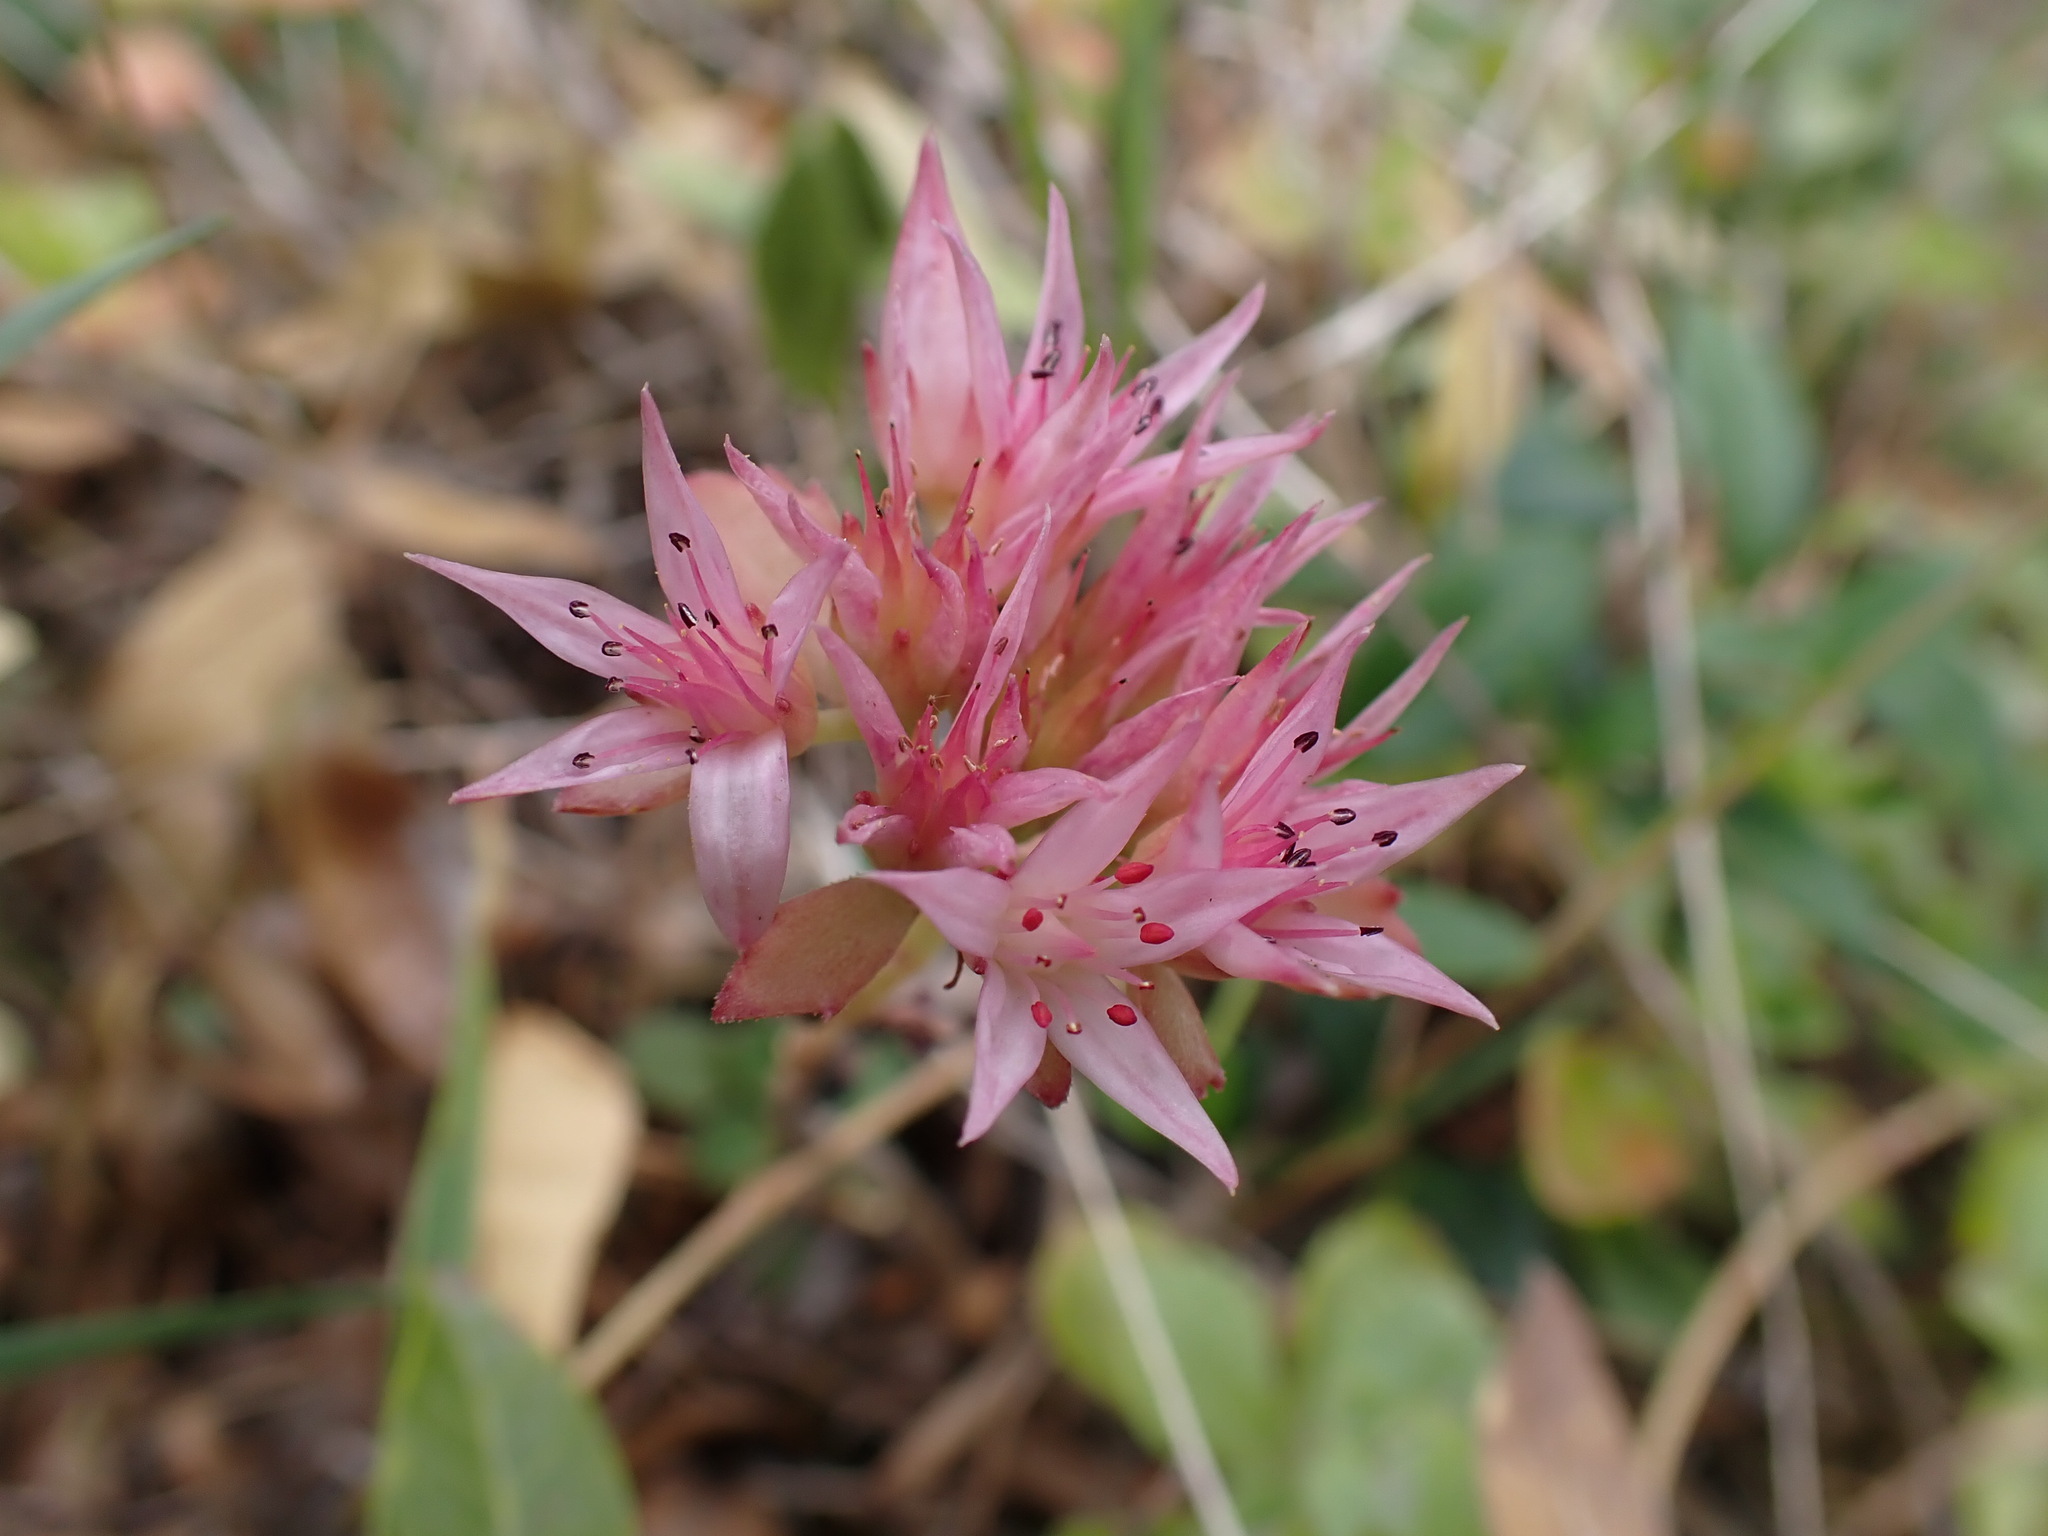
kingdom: Plantae
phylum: Tracheophyta
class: Magnoliopsida
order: Saxifragales
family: Crassulaceae
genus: Phedimus
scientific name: Phedimus spurius
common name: Caucasian stonecrop
